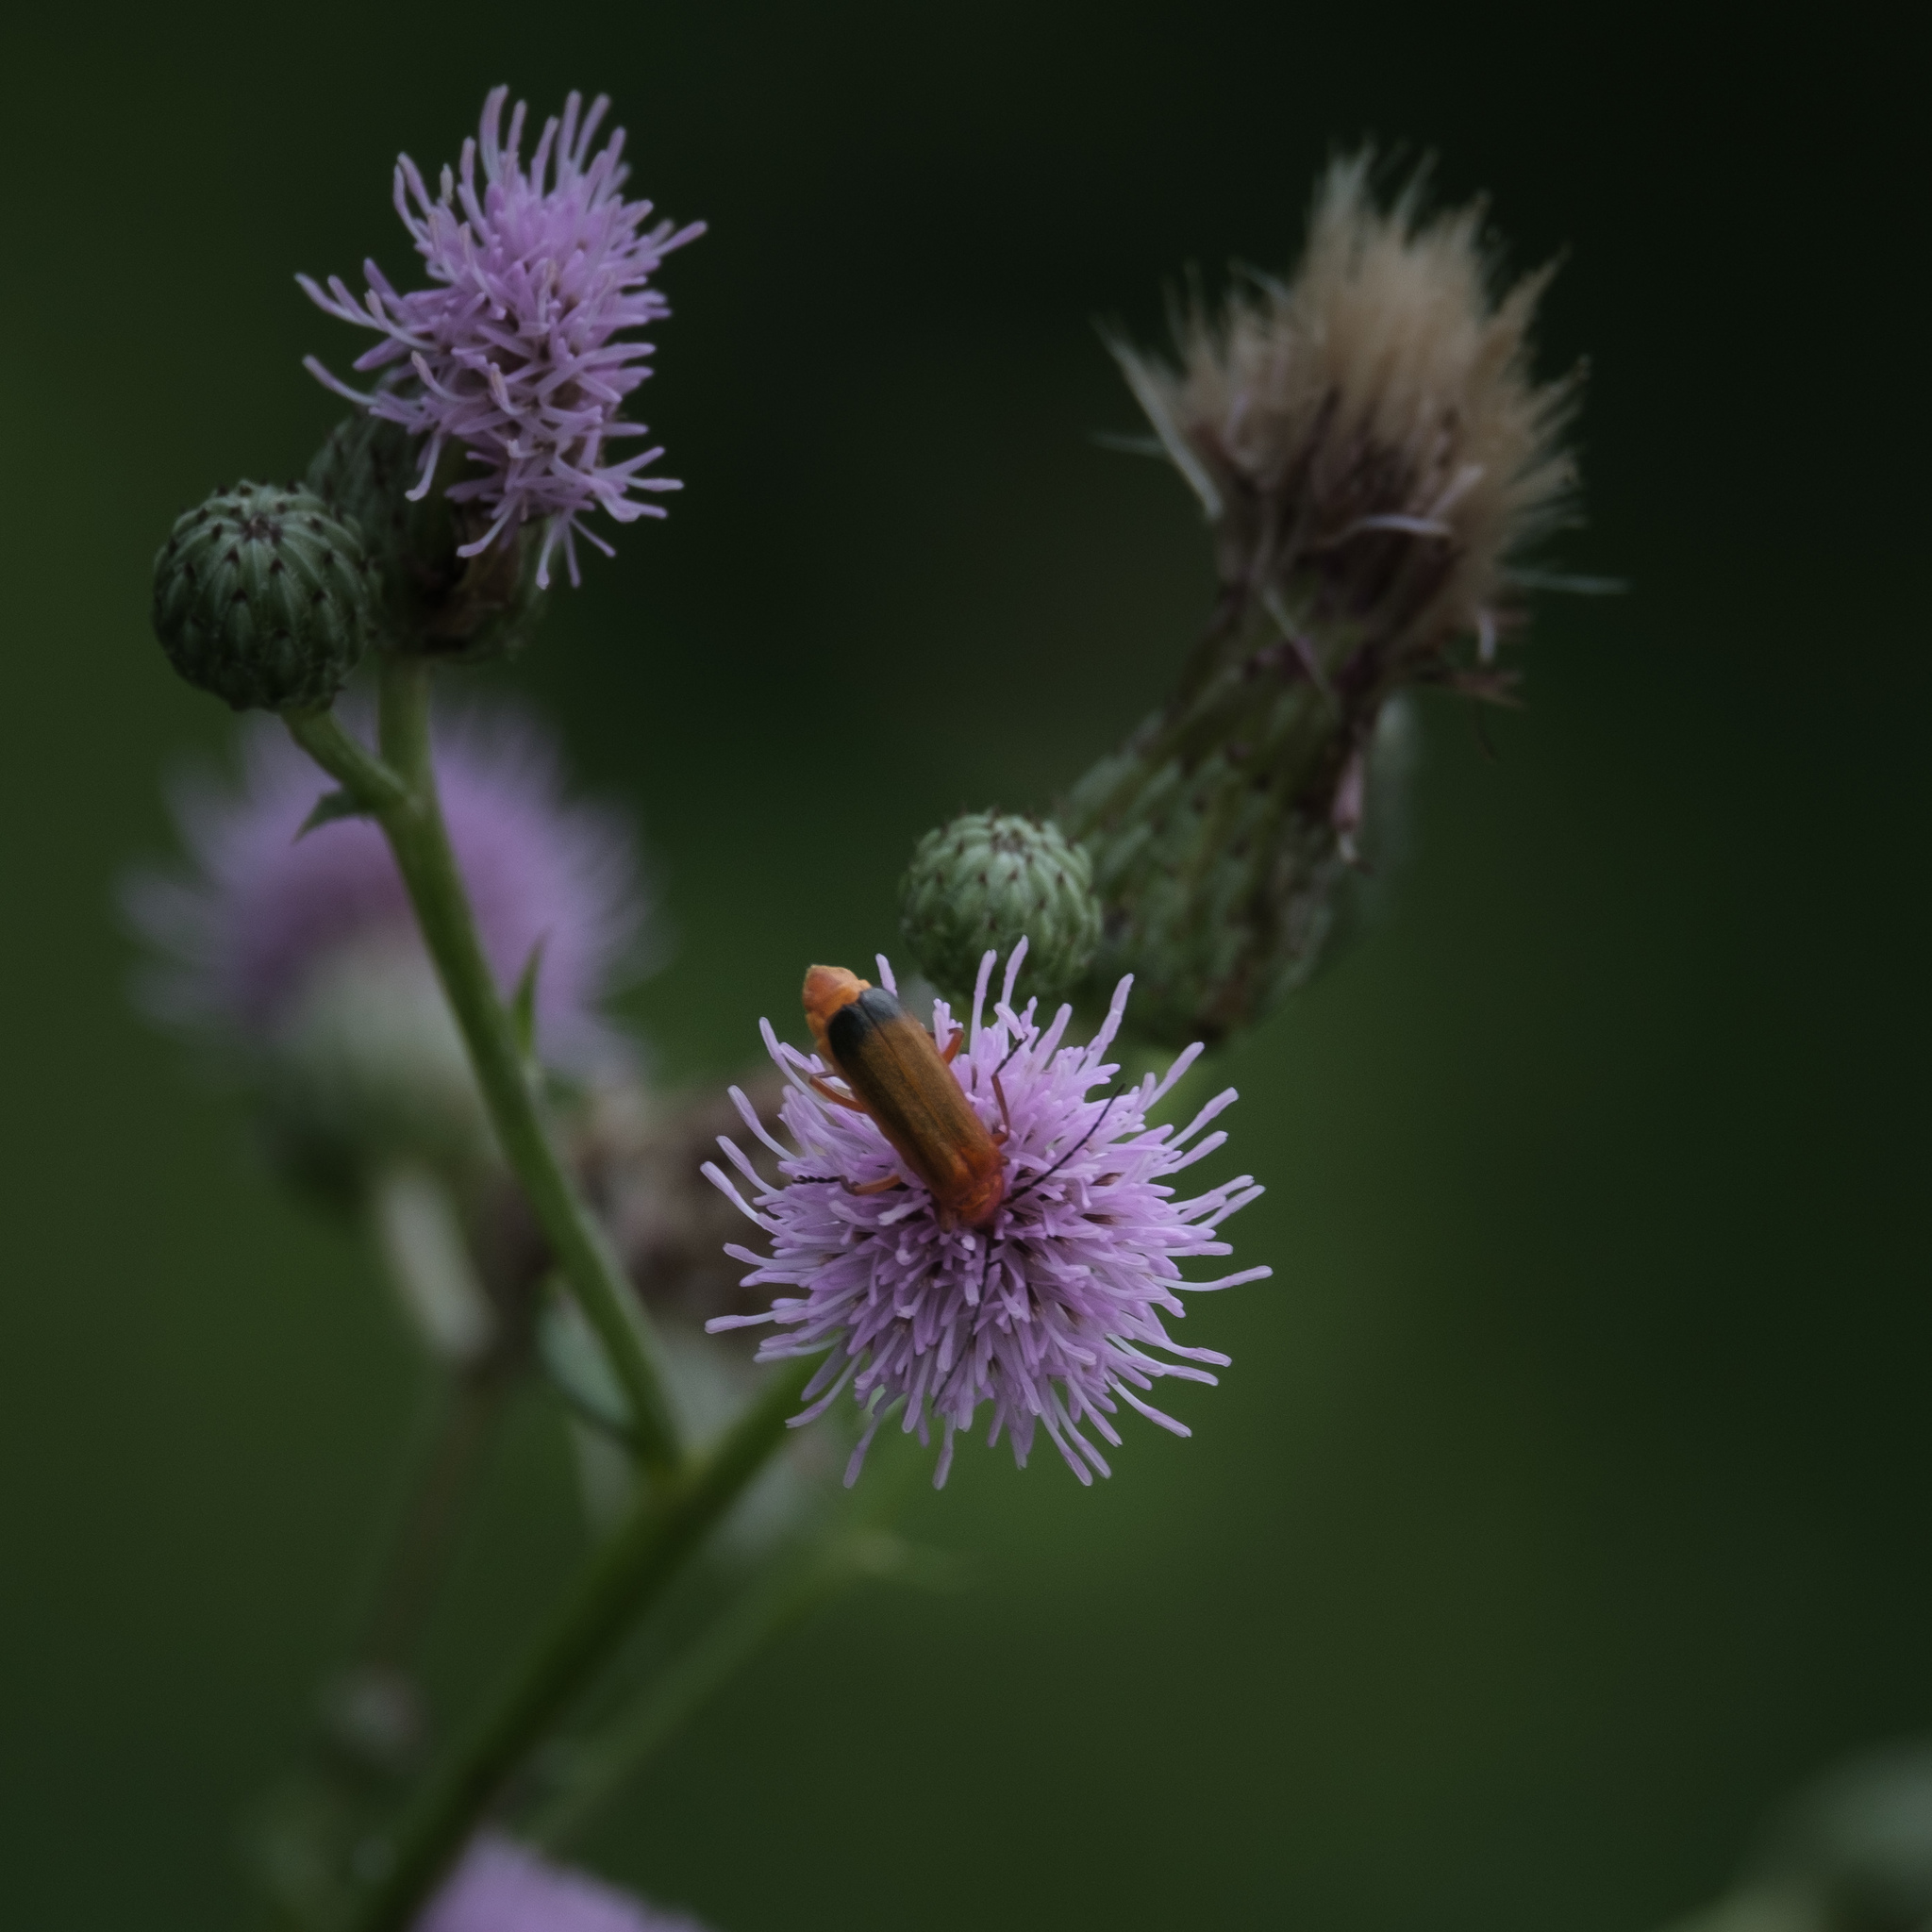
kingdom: Animalia
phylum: Arthropoda
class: Insecta
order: Coleoptera
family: Cantharidae
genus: Rhagonycha
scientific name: Rhagonycha fulva
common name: Common red soldier beetle
